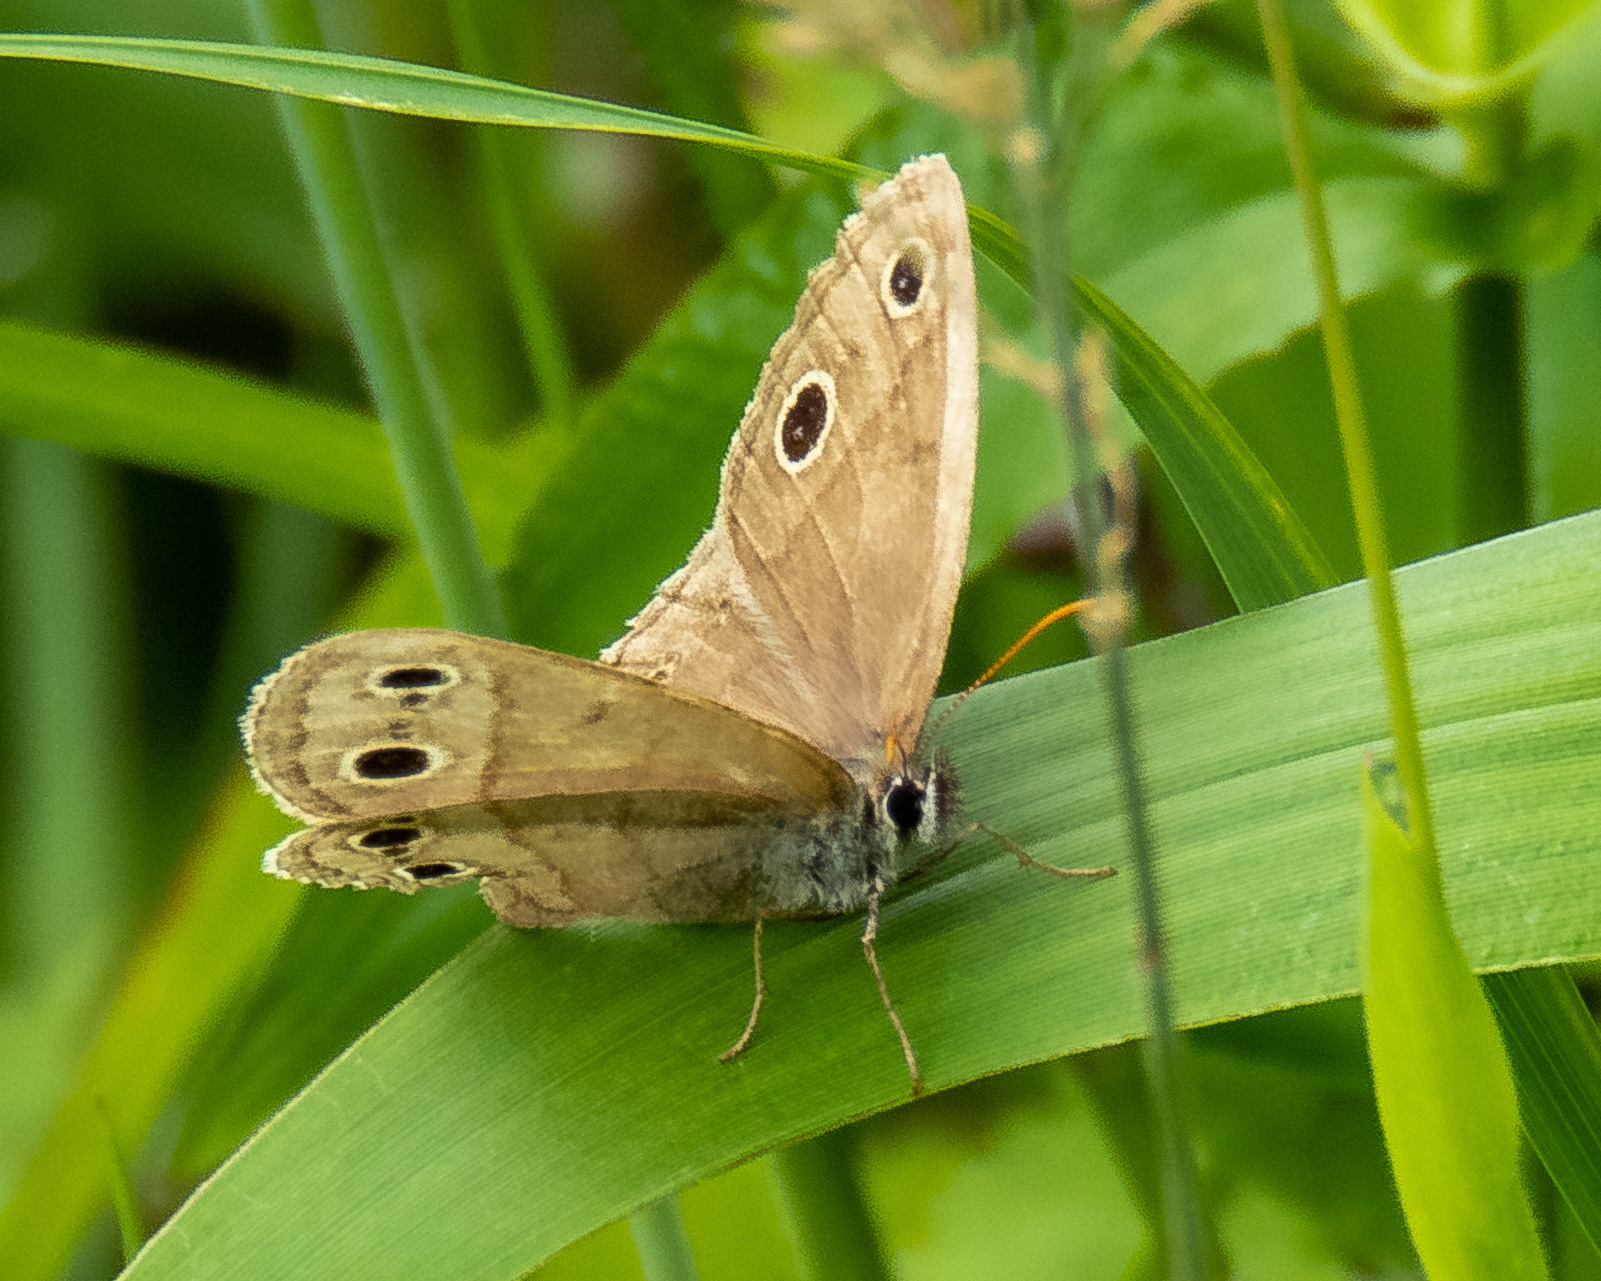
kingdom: Animalia
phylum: Arthropoda
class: Insecta
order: Lepidoptera
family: Nymphalidae
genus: Euptychia
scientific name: Euptychia cymela
